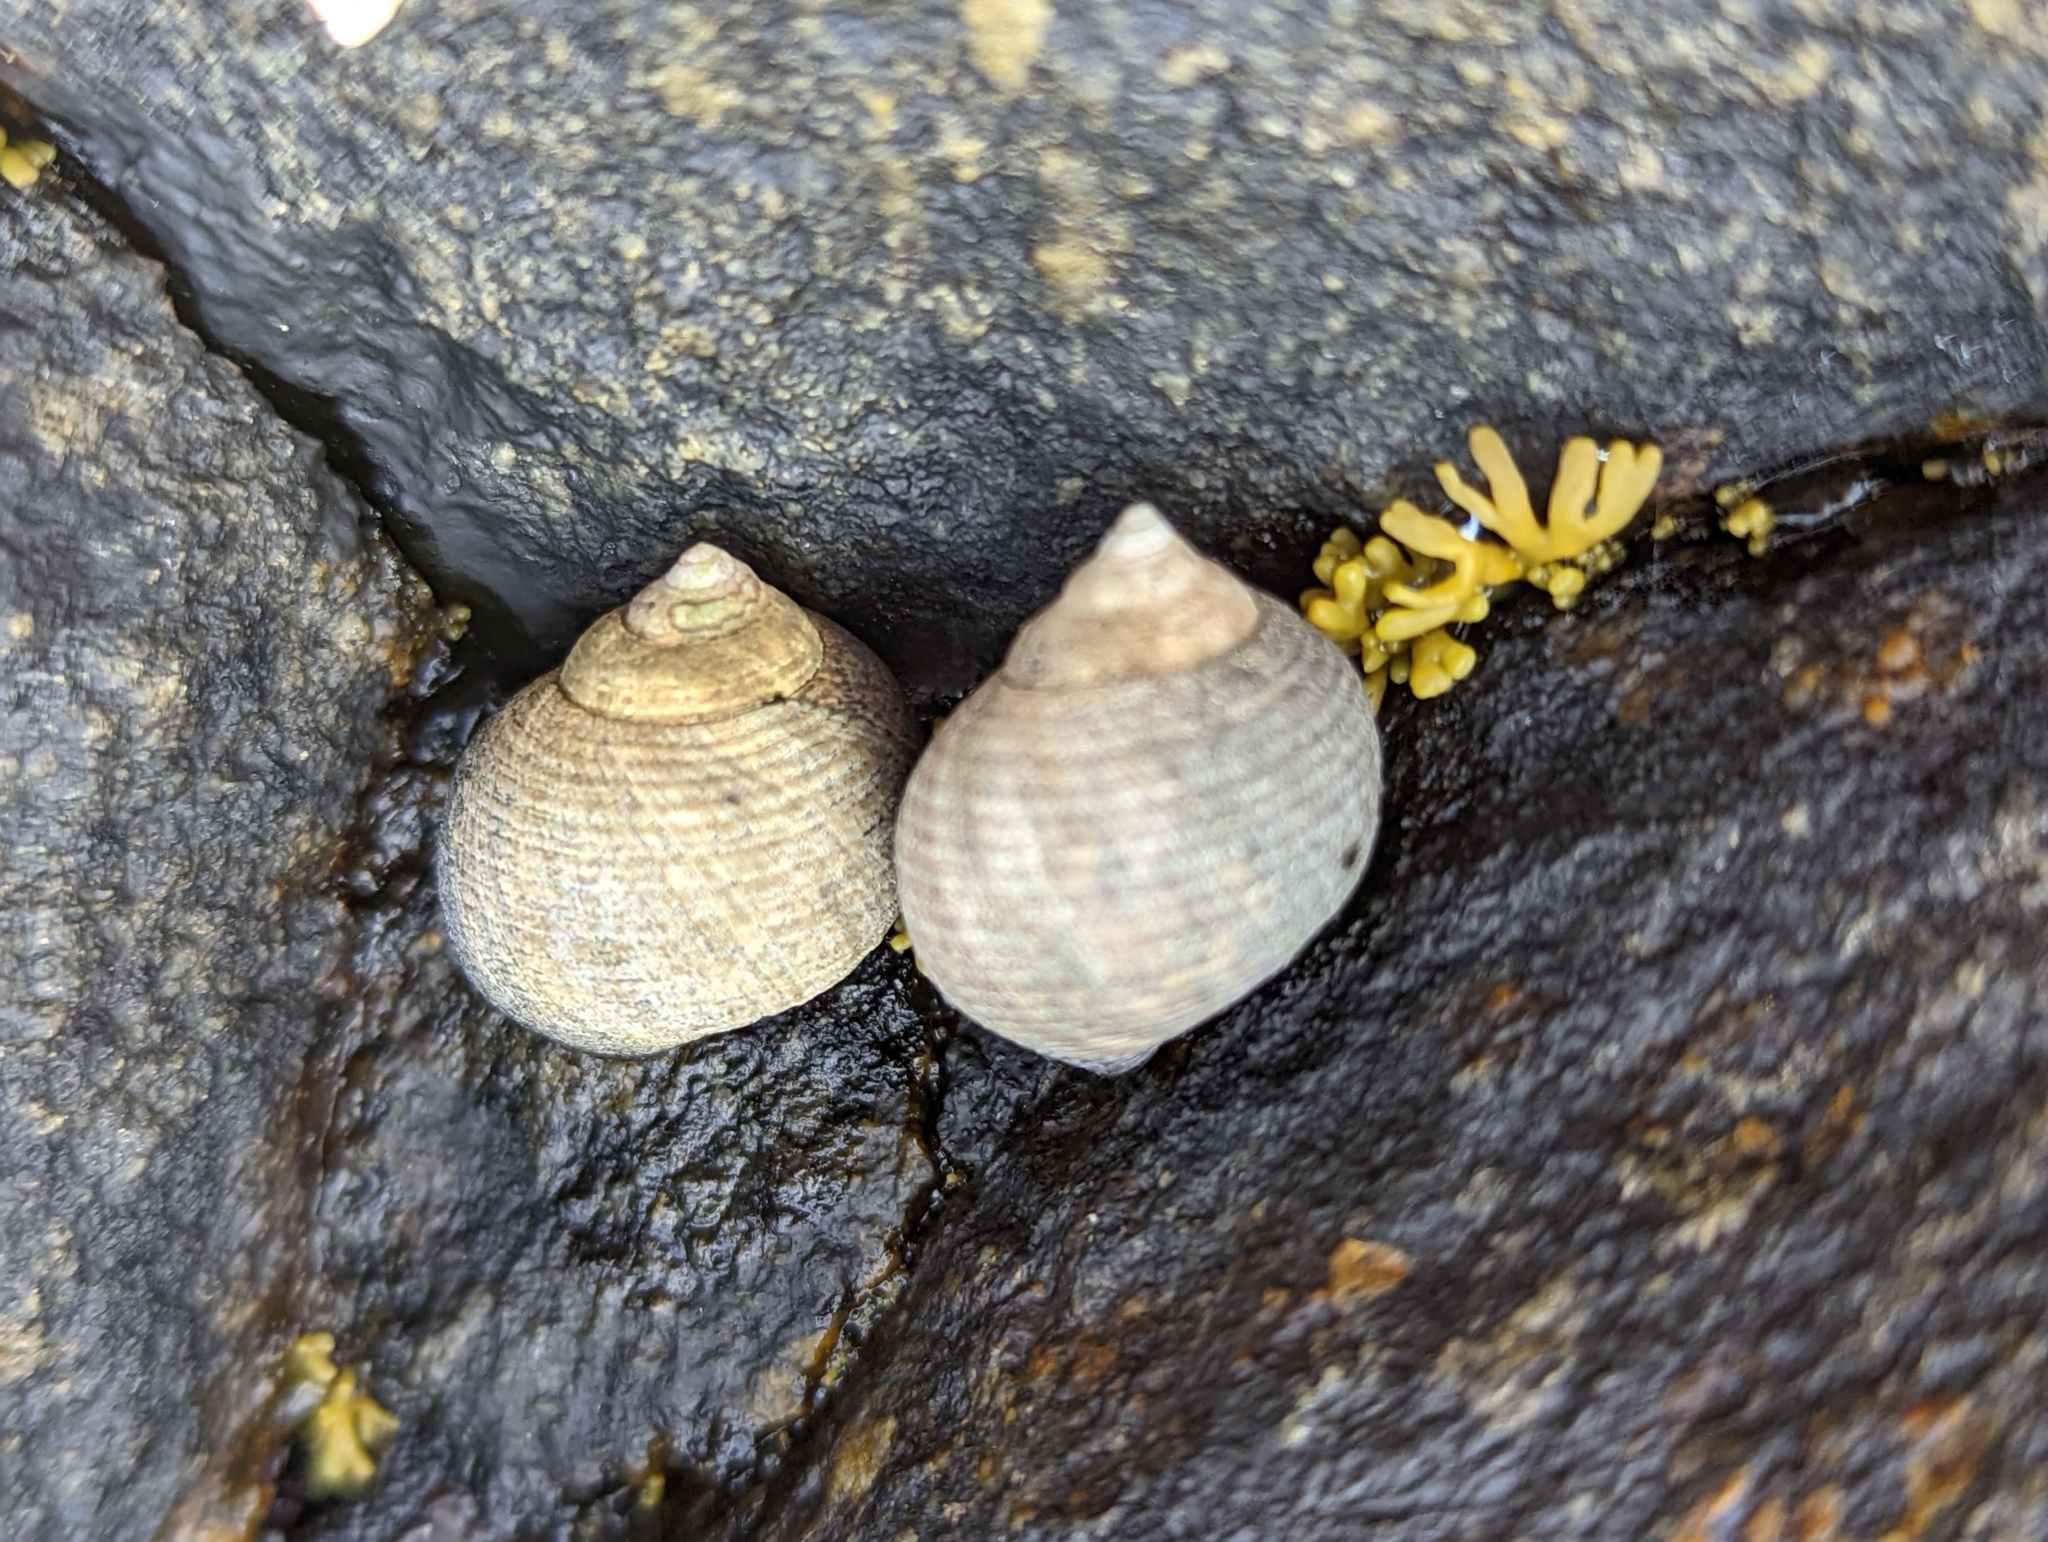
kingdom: Animalia
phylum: Mollusca
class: Gastropoda
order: Littorinimorpha
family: Littorinidae
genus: Littorina
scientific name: Littorina littorea
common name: Common periwinkle
